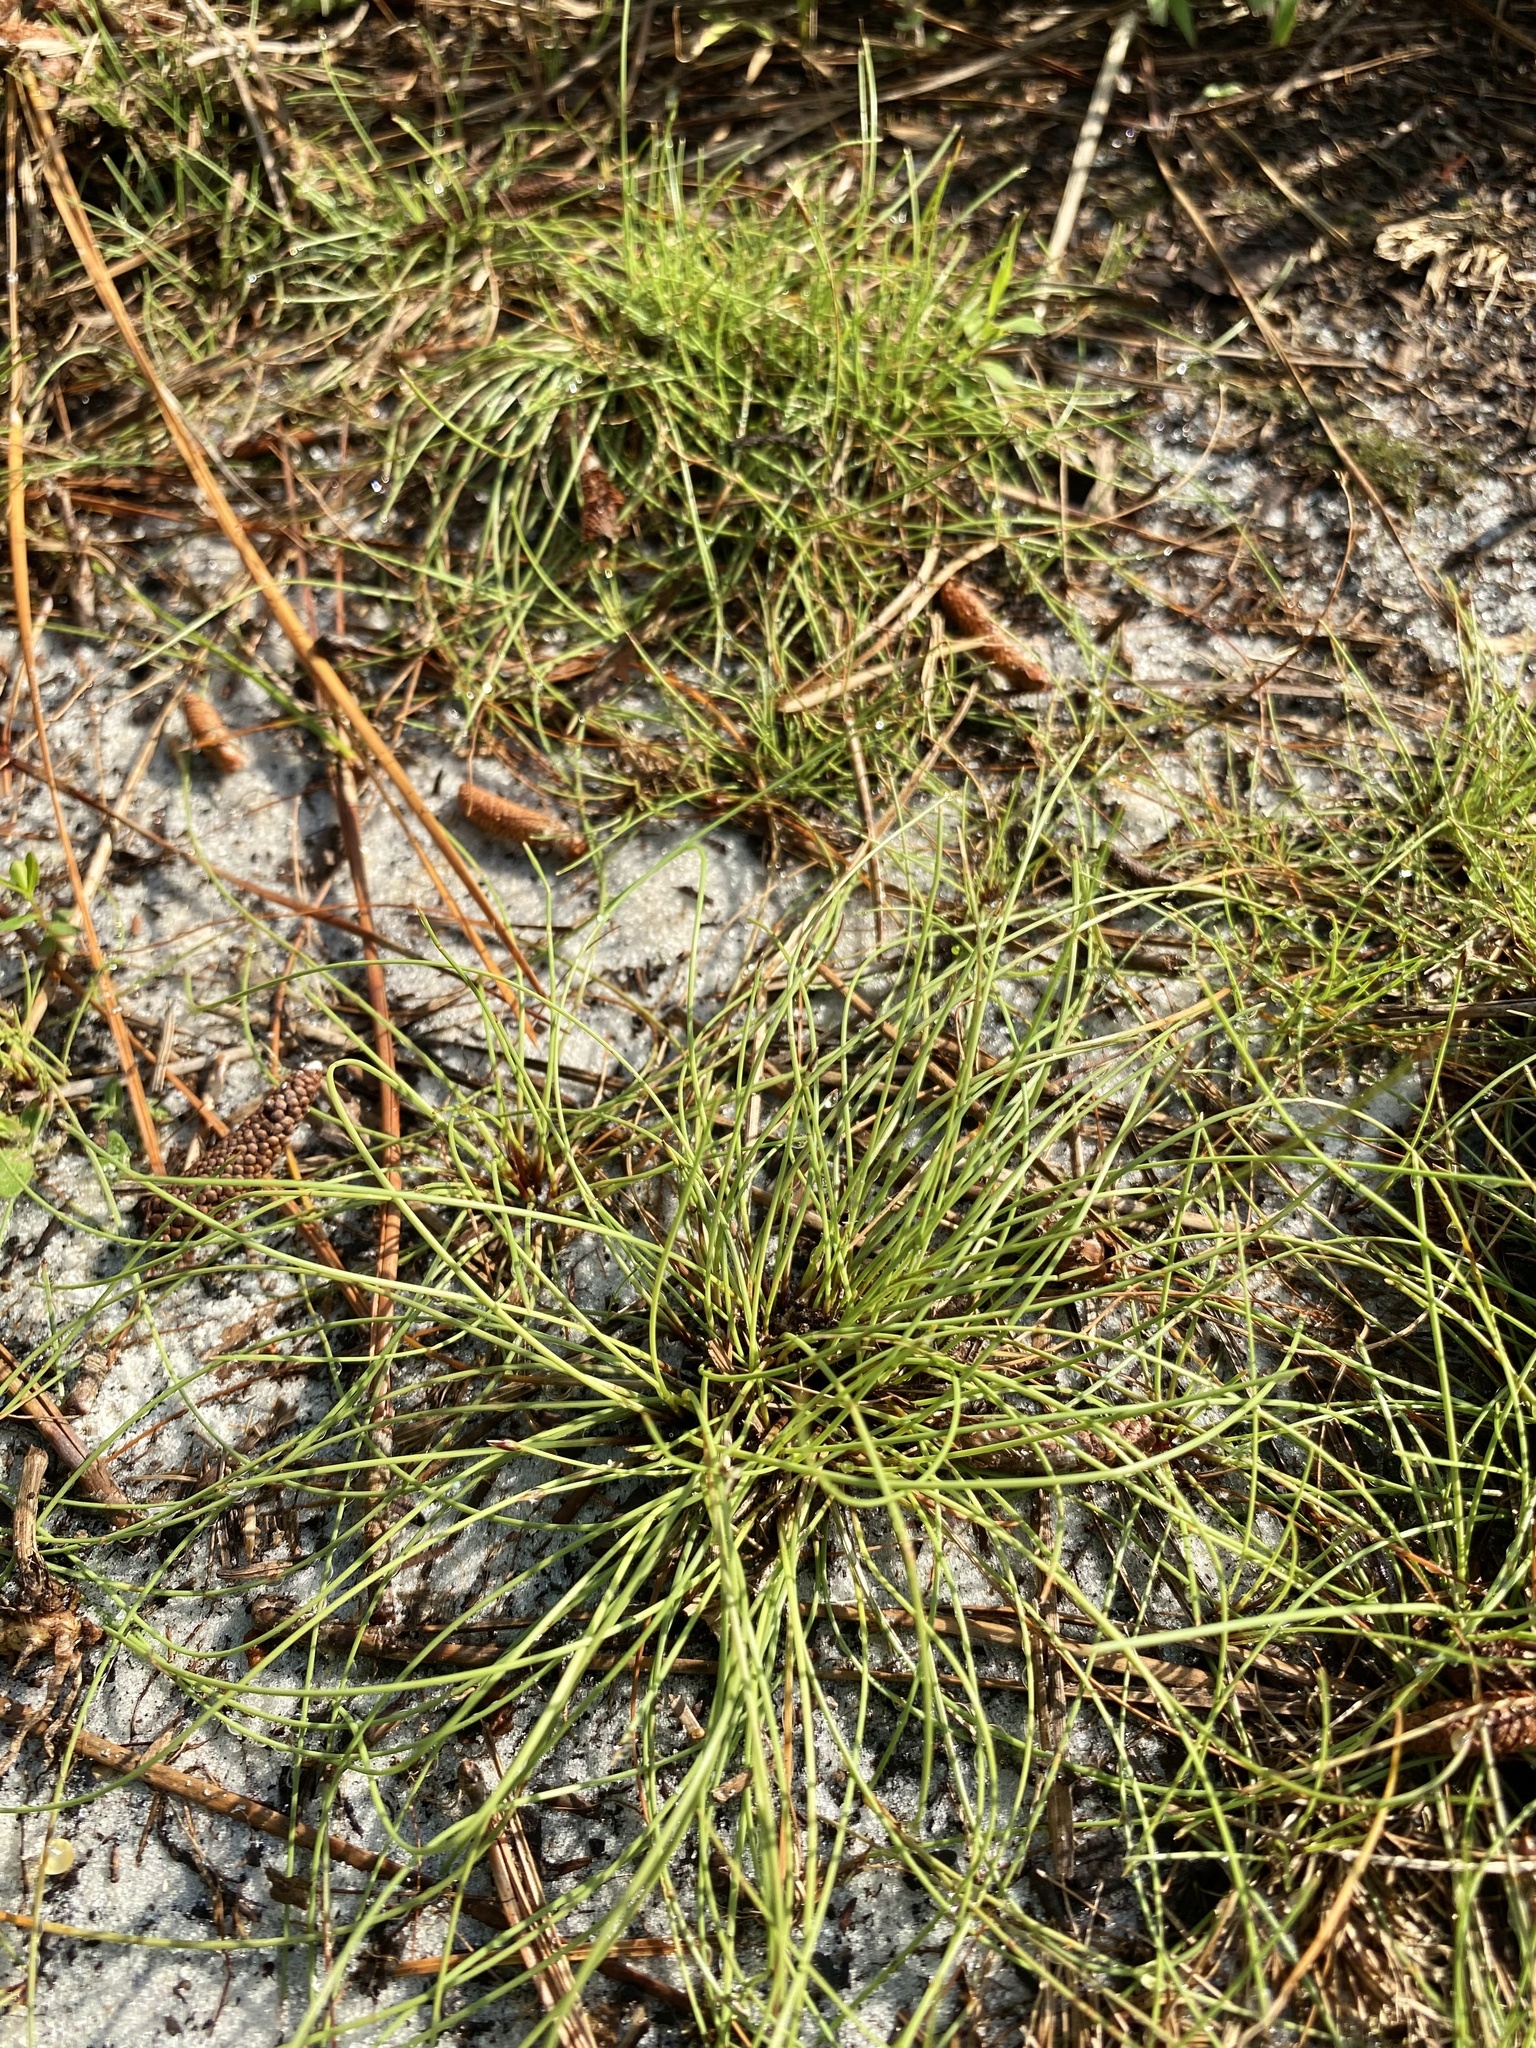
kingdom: Plantae
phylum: Tracheophyta
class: Liliopsida
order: Poales
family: Cyperaceae
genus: Eleocharis
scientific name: Eleocharis baldwinii
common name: Baldwin's spike-rush
